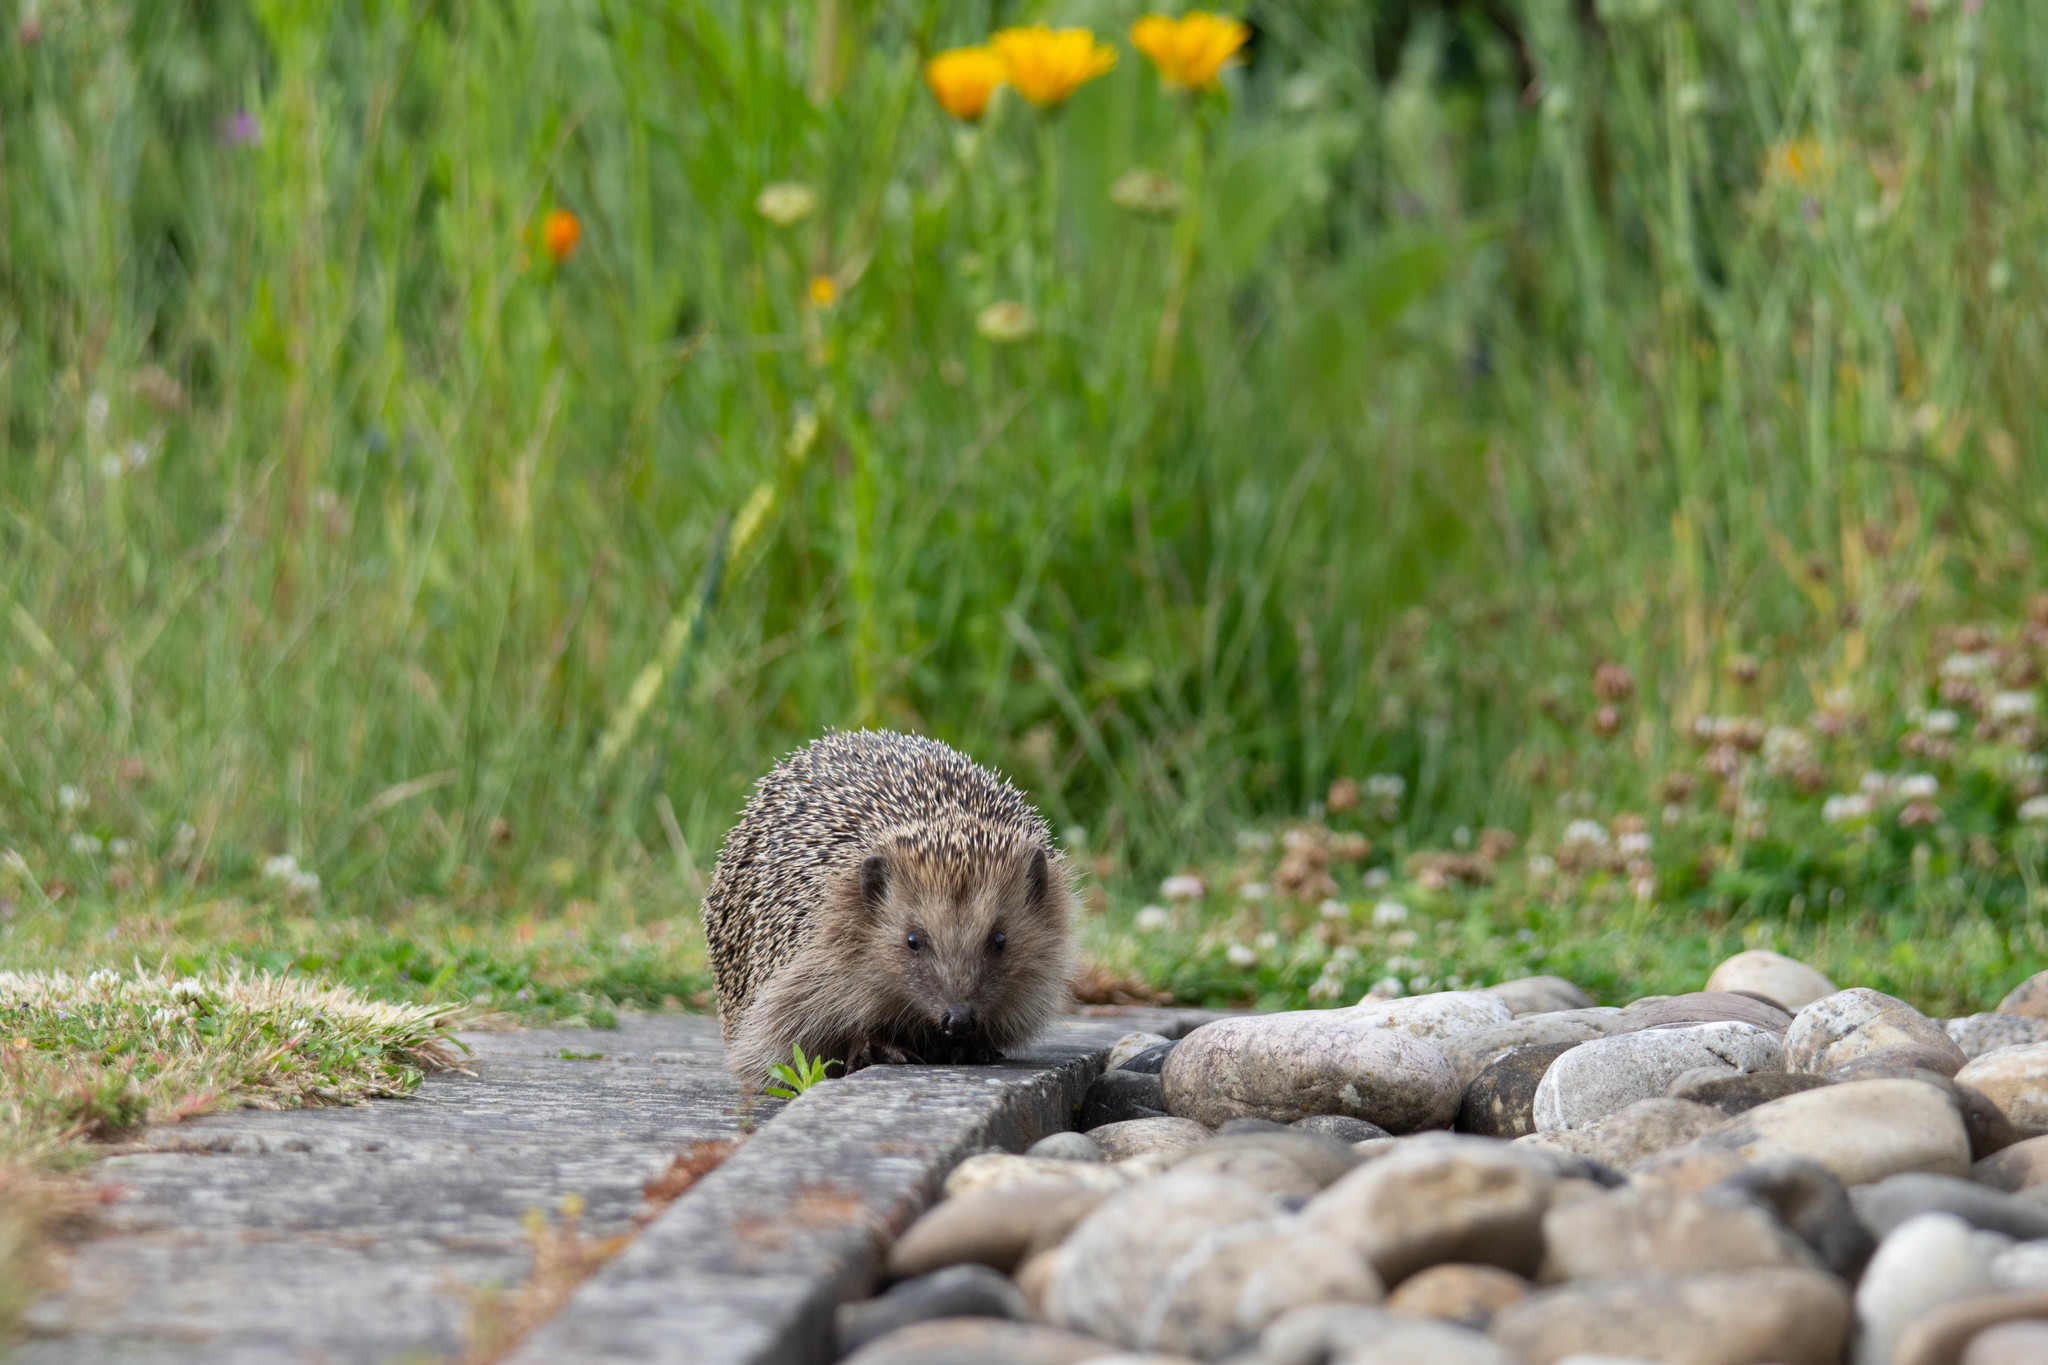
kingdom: Animalia
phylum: Chordata
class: Mammalia
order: Erinaceomorpha
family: Erinaceidae
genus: Erinaceus
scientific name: Erinaceus europaeus
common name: West european hedgehog
